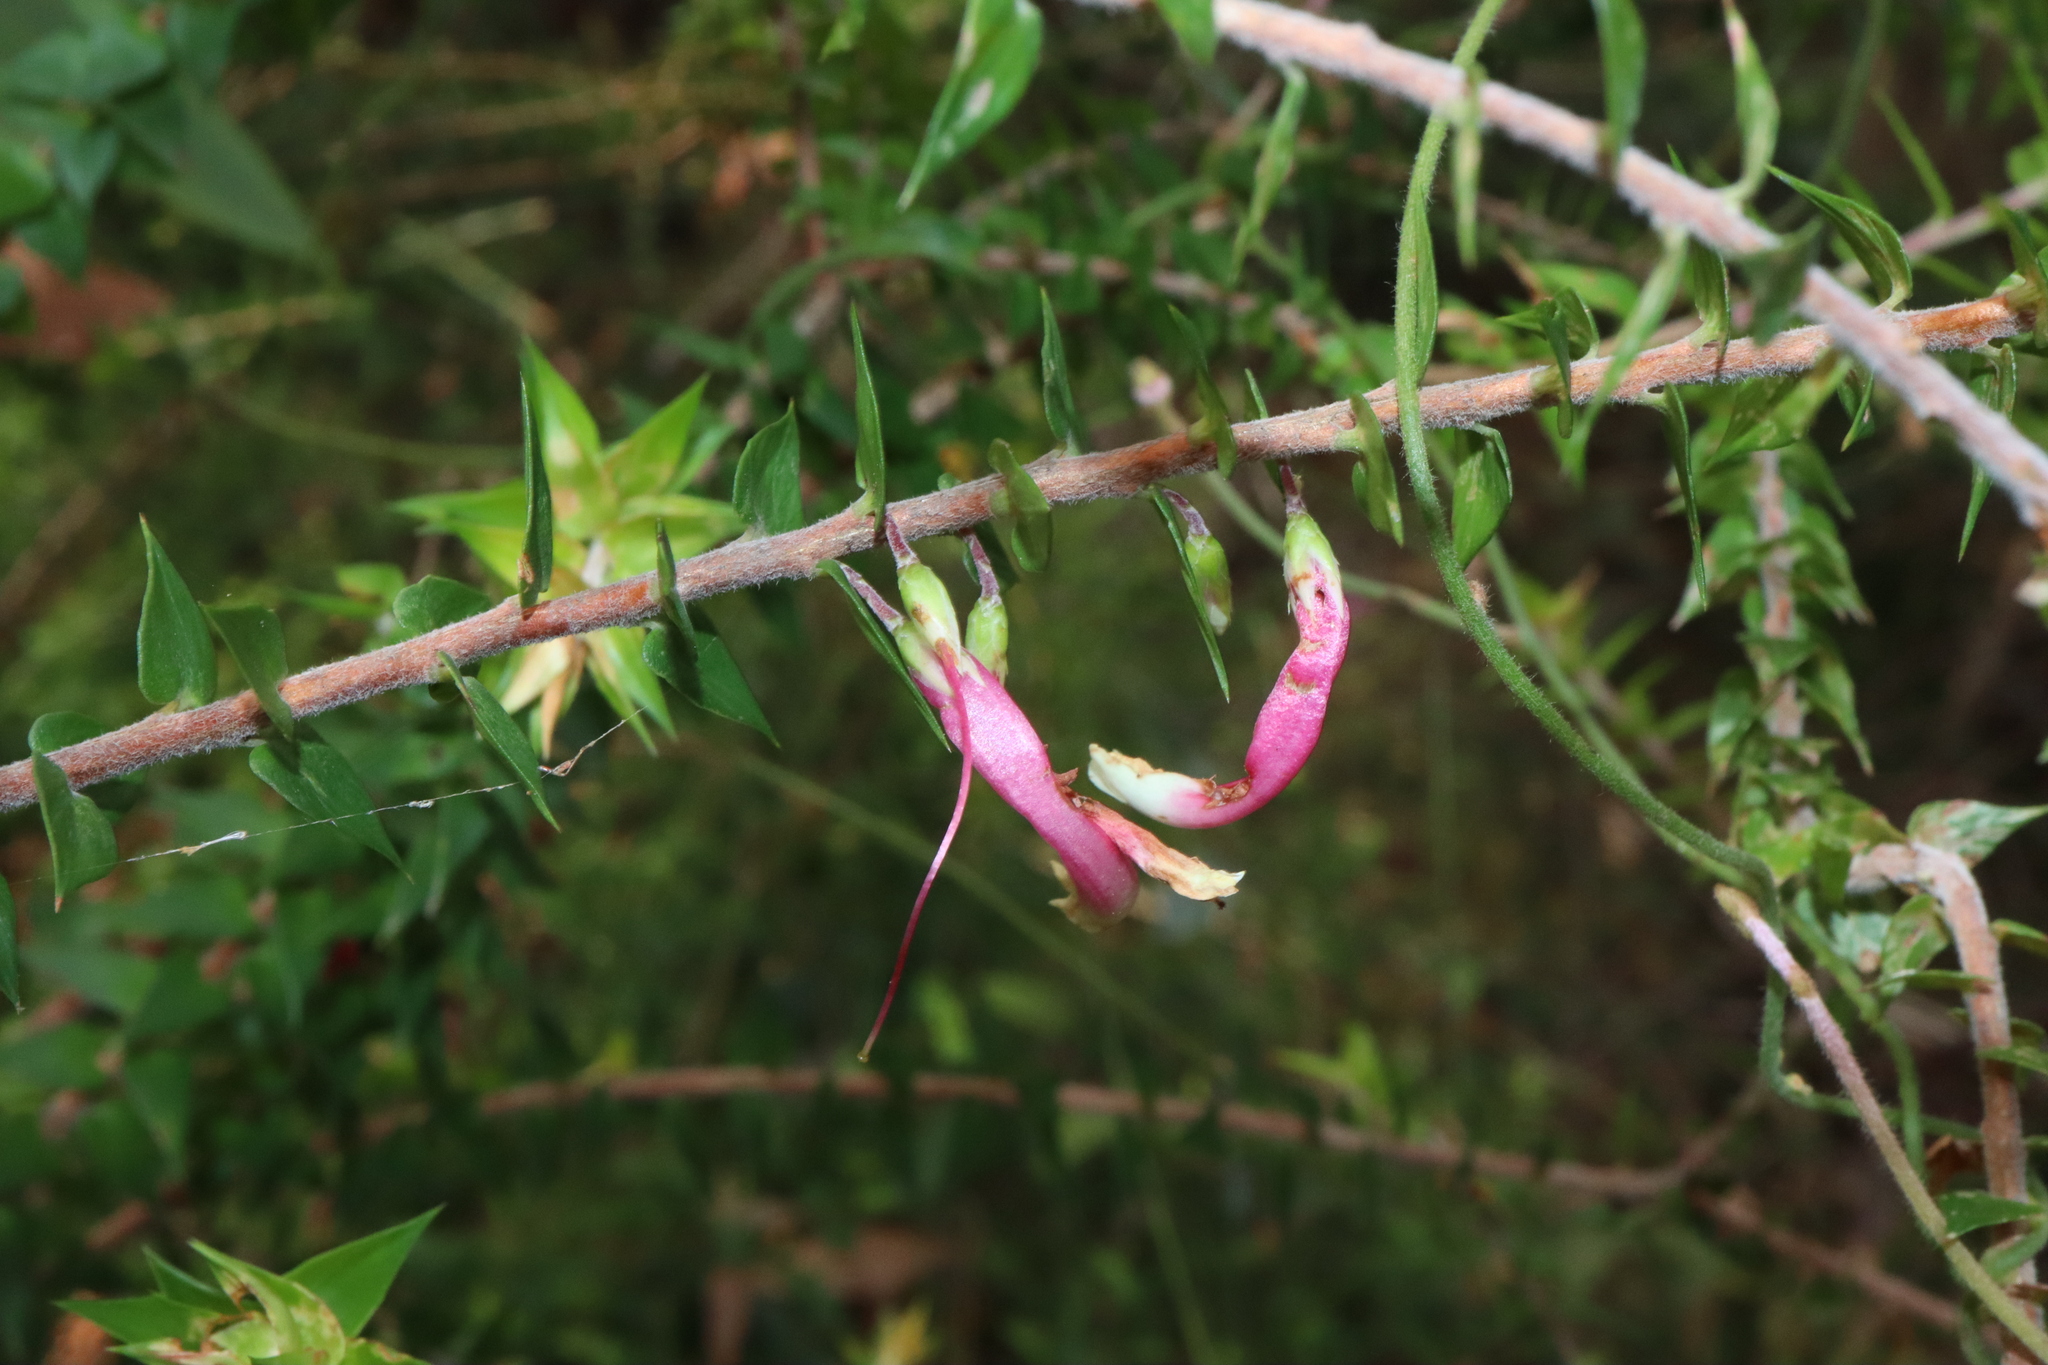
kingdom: Plantae
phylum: Tracheophyta
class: Magnoliopsida
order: Ericales
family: Ericaceae
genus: Epacris
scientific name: Epacris longiflora
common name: Fuchsia-heath
